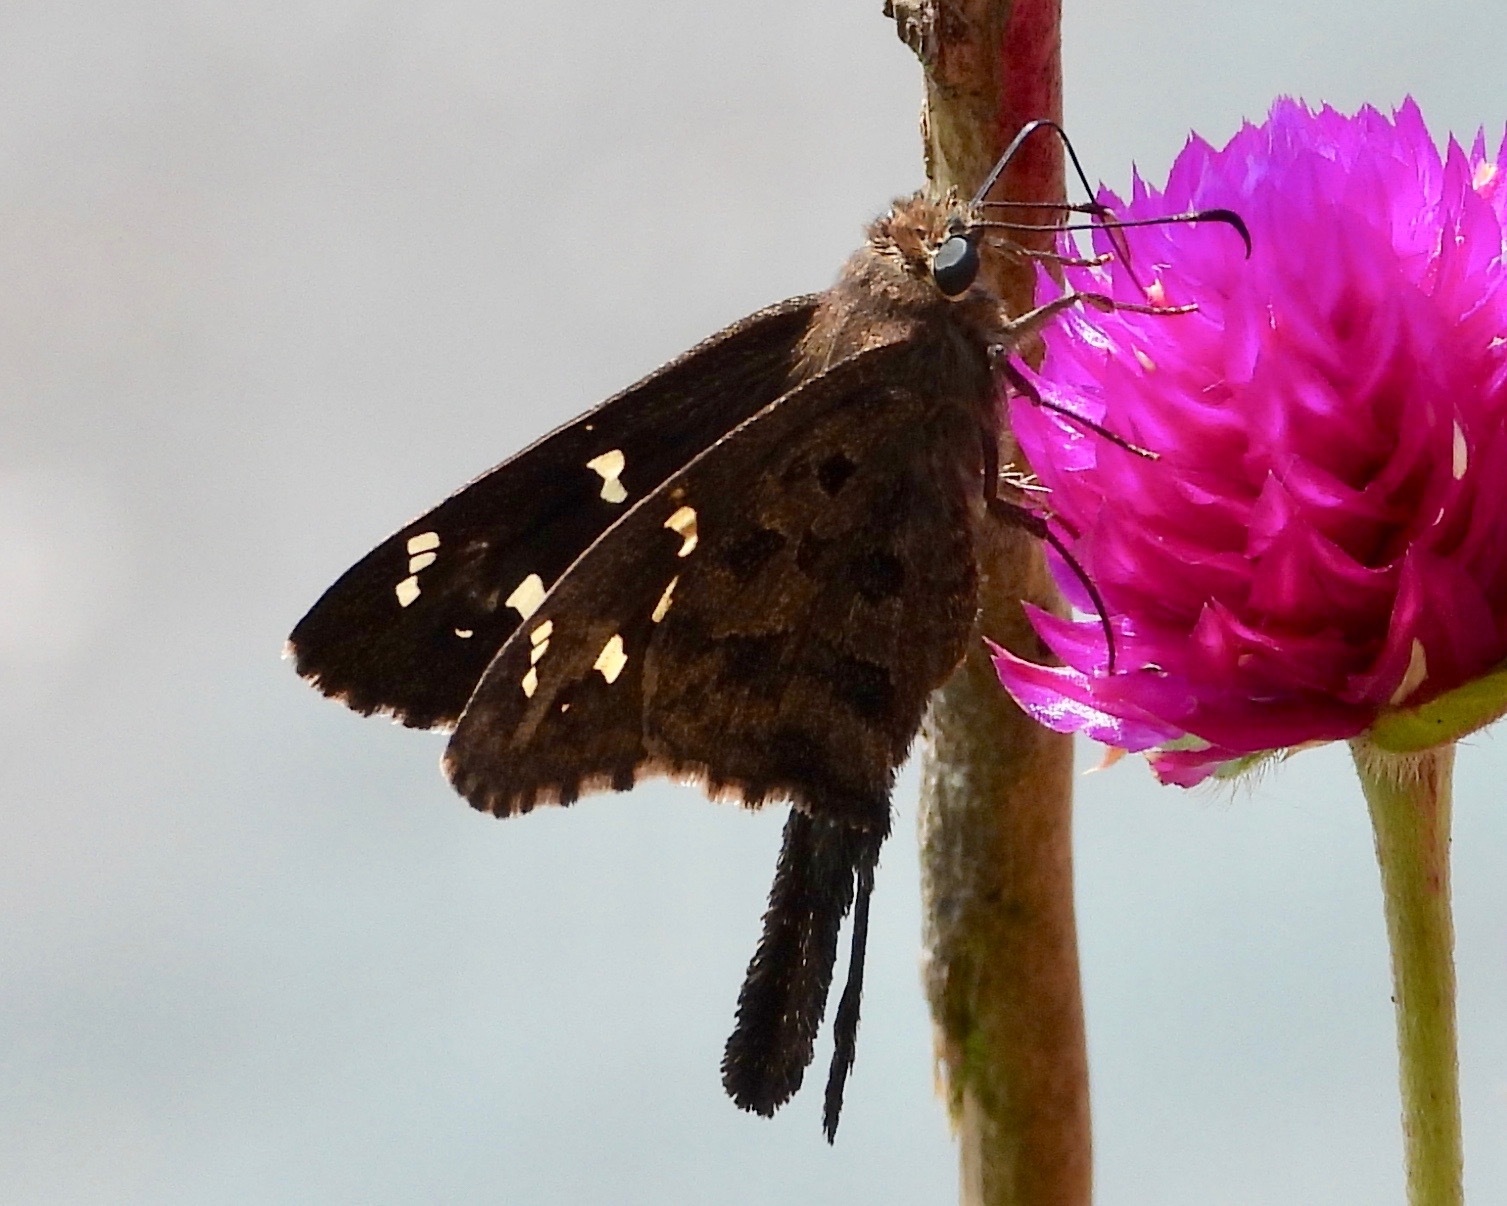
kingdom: Animalia
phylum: Arthropoda
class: Insecta
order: Lepidoptera
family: Hesperiidae
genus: Thorybes
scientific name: Thorybes
